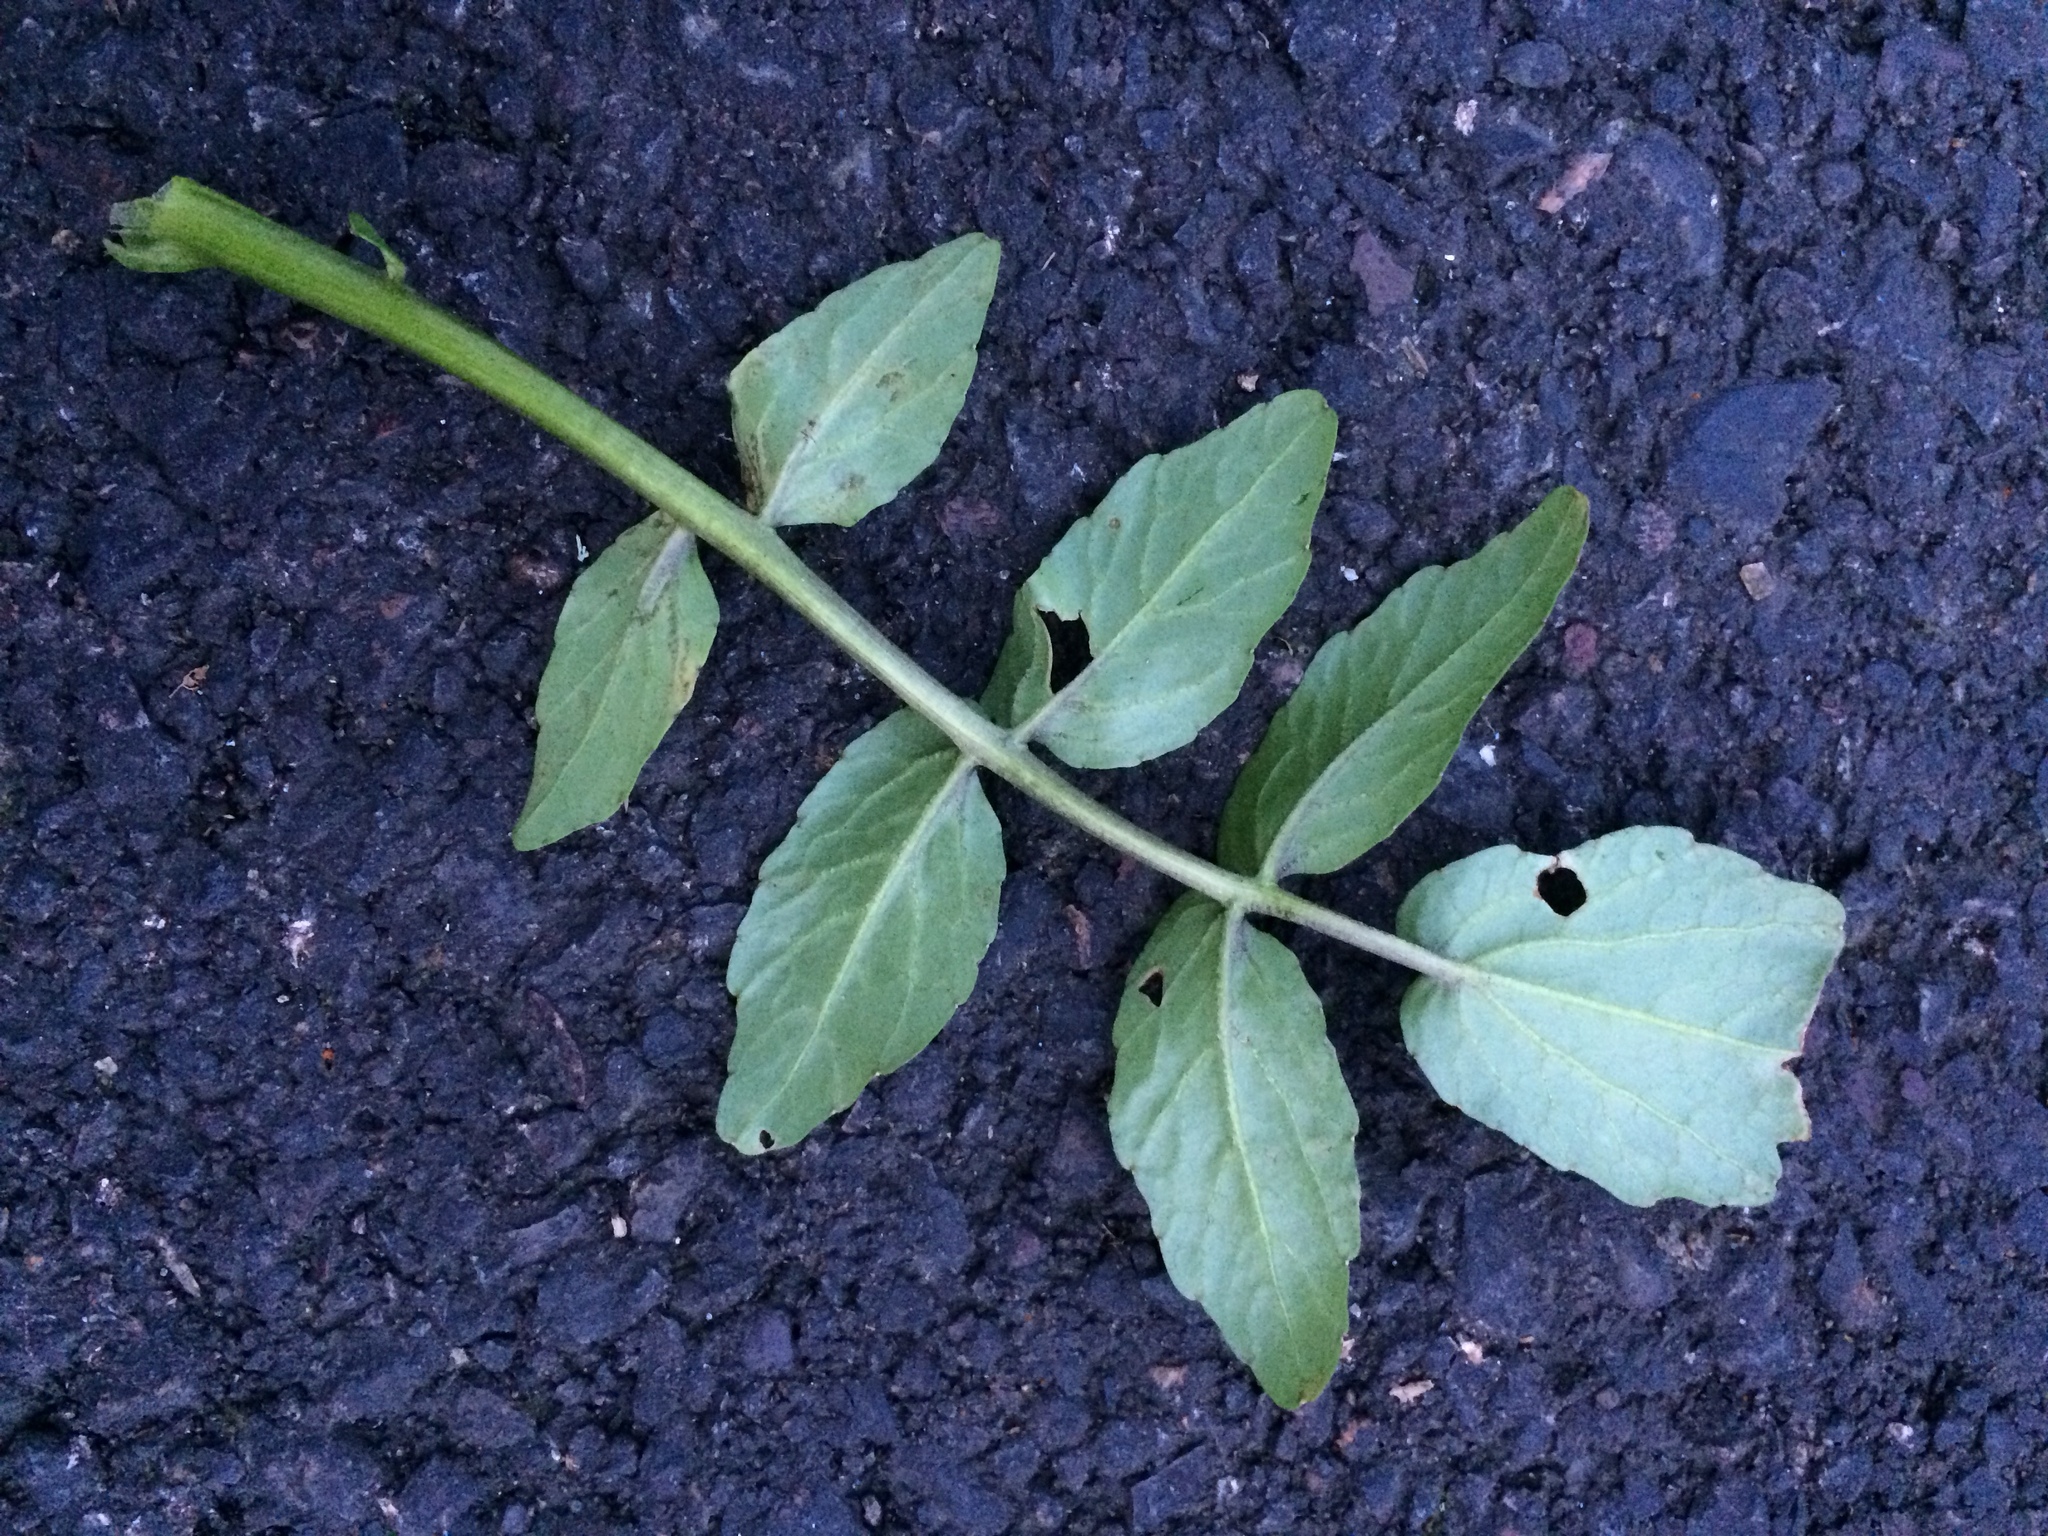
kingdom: Plantae
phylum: Tracheophyta
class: Magnoliopsida
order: Brassicales
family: Brassicaceae
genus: Nasturtium
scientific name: Nasturtium officinale
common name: Watercress
